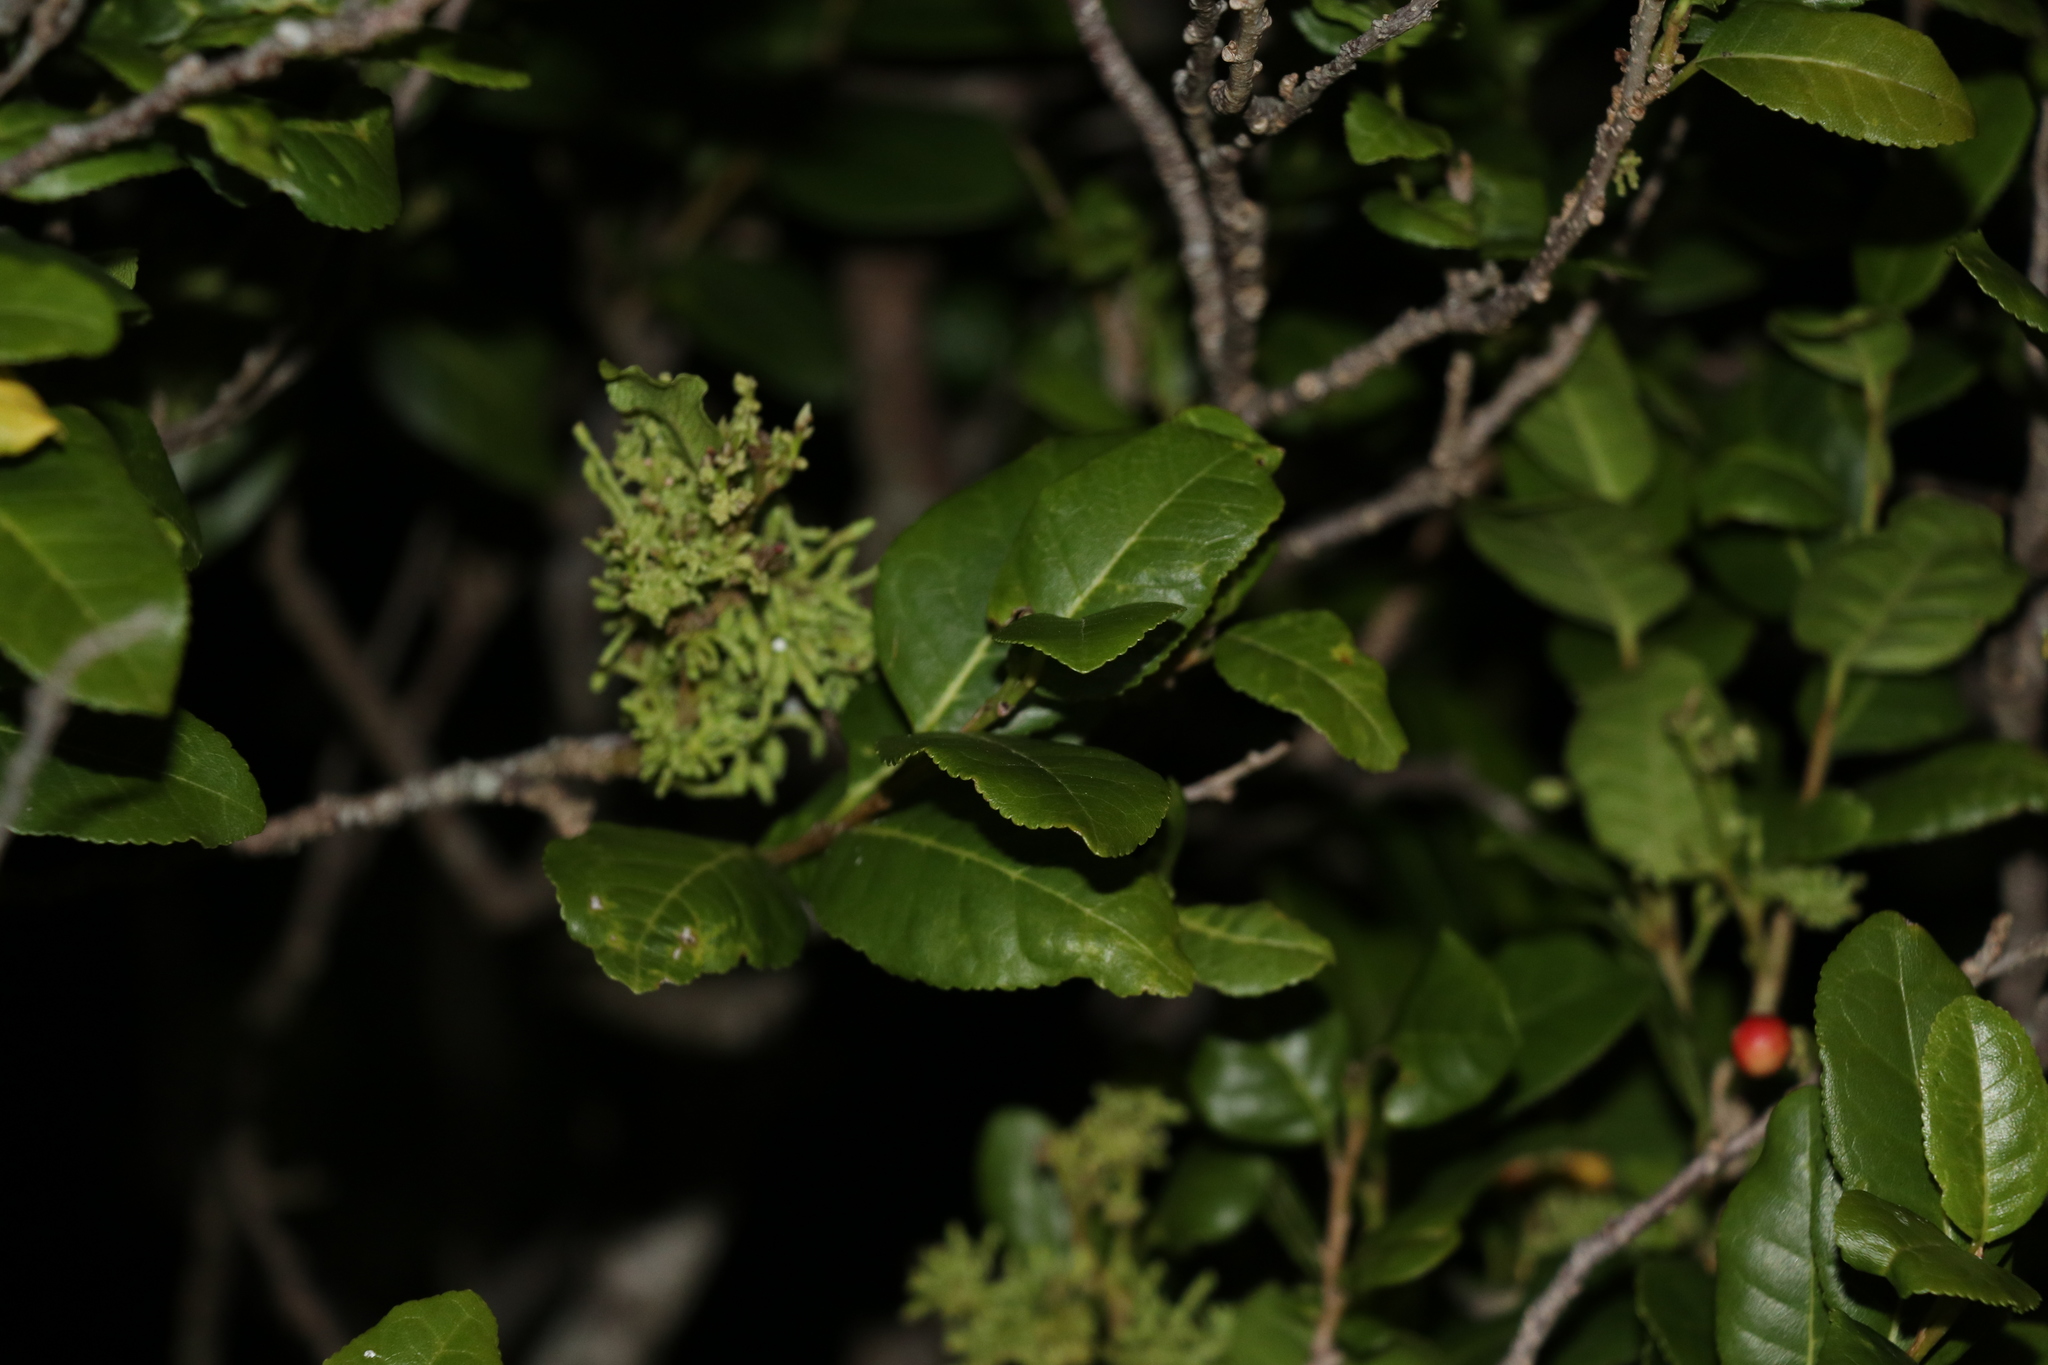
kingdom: Plantae
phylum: Tracheophyta
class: Magnoliopsida
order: Rosales
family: Moraceae
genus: Paratrophis
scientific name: Paratrophis banksii
